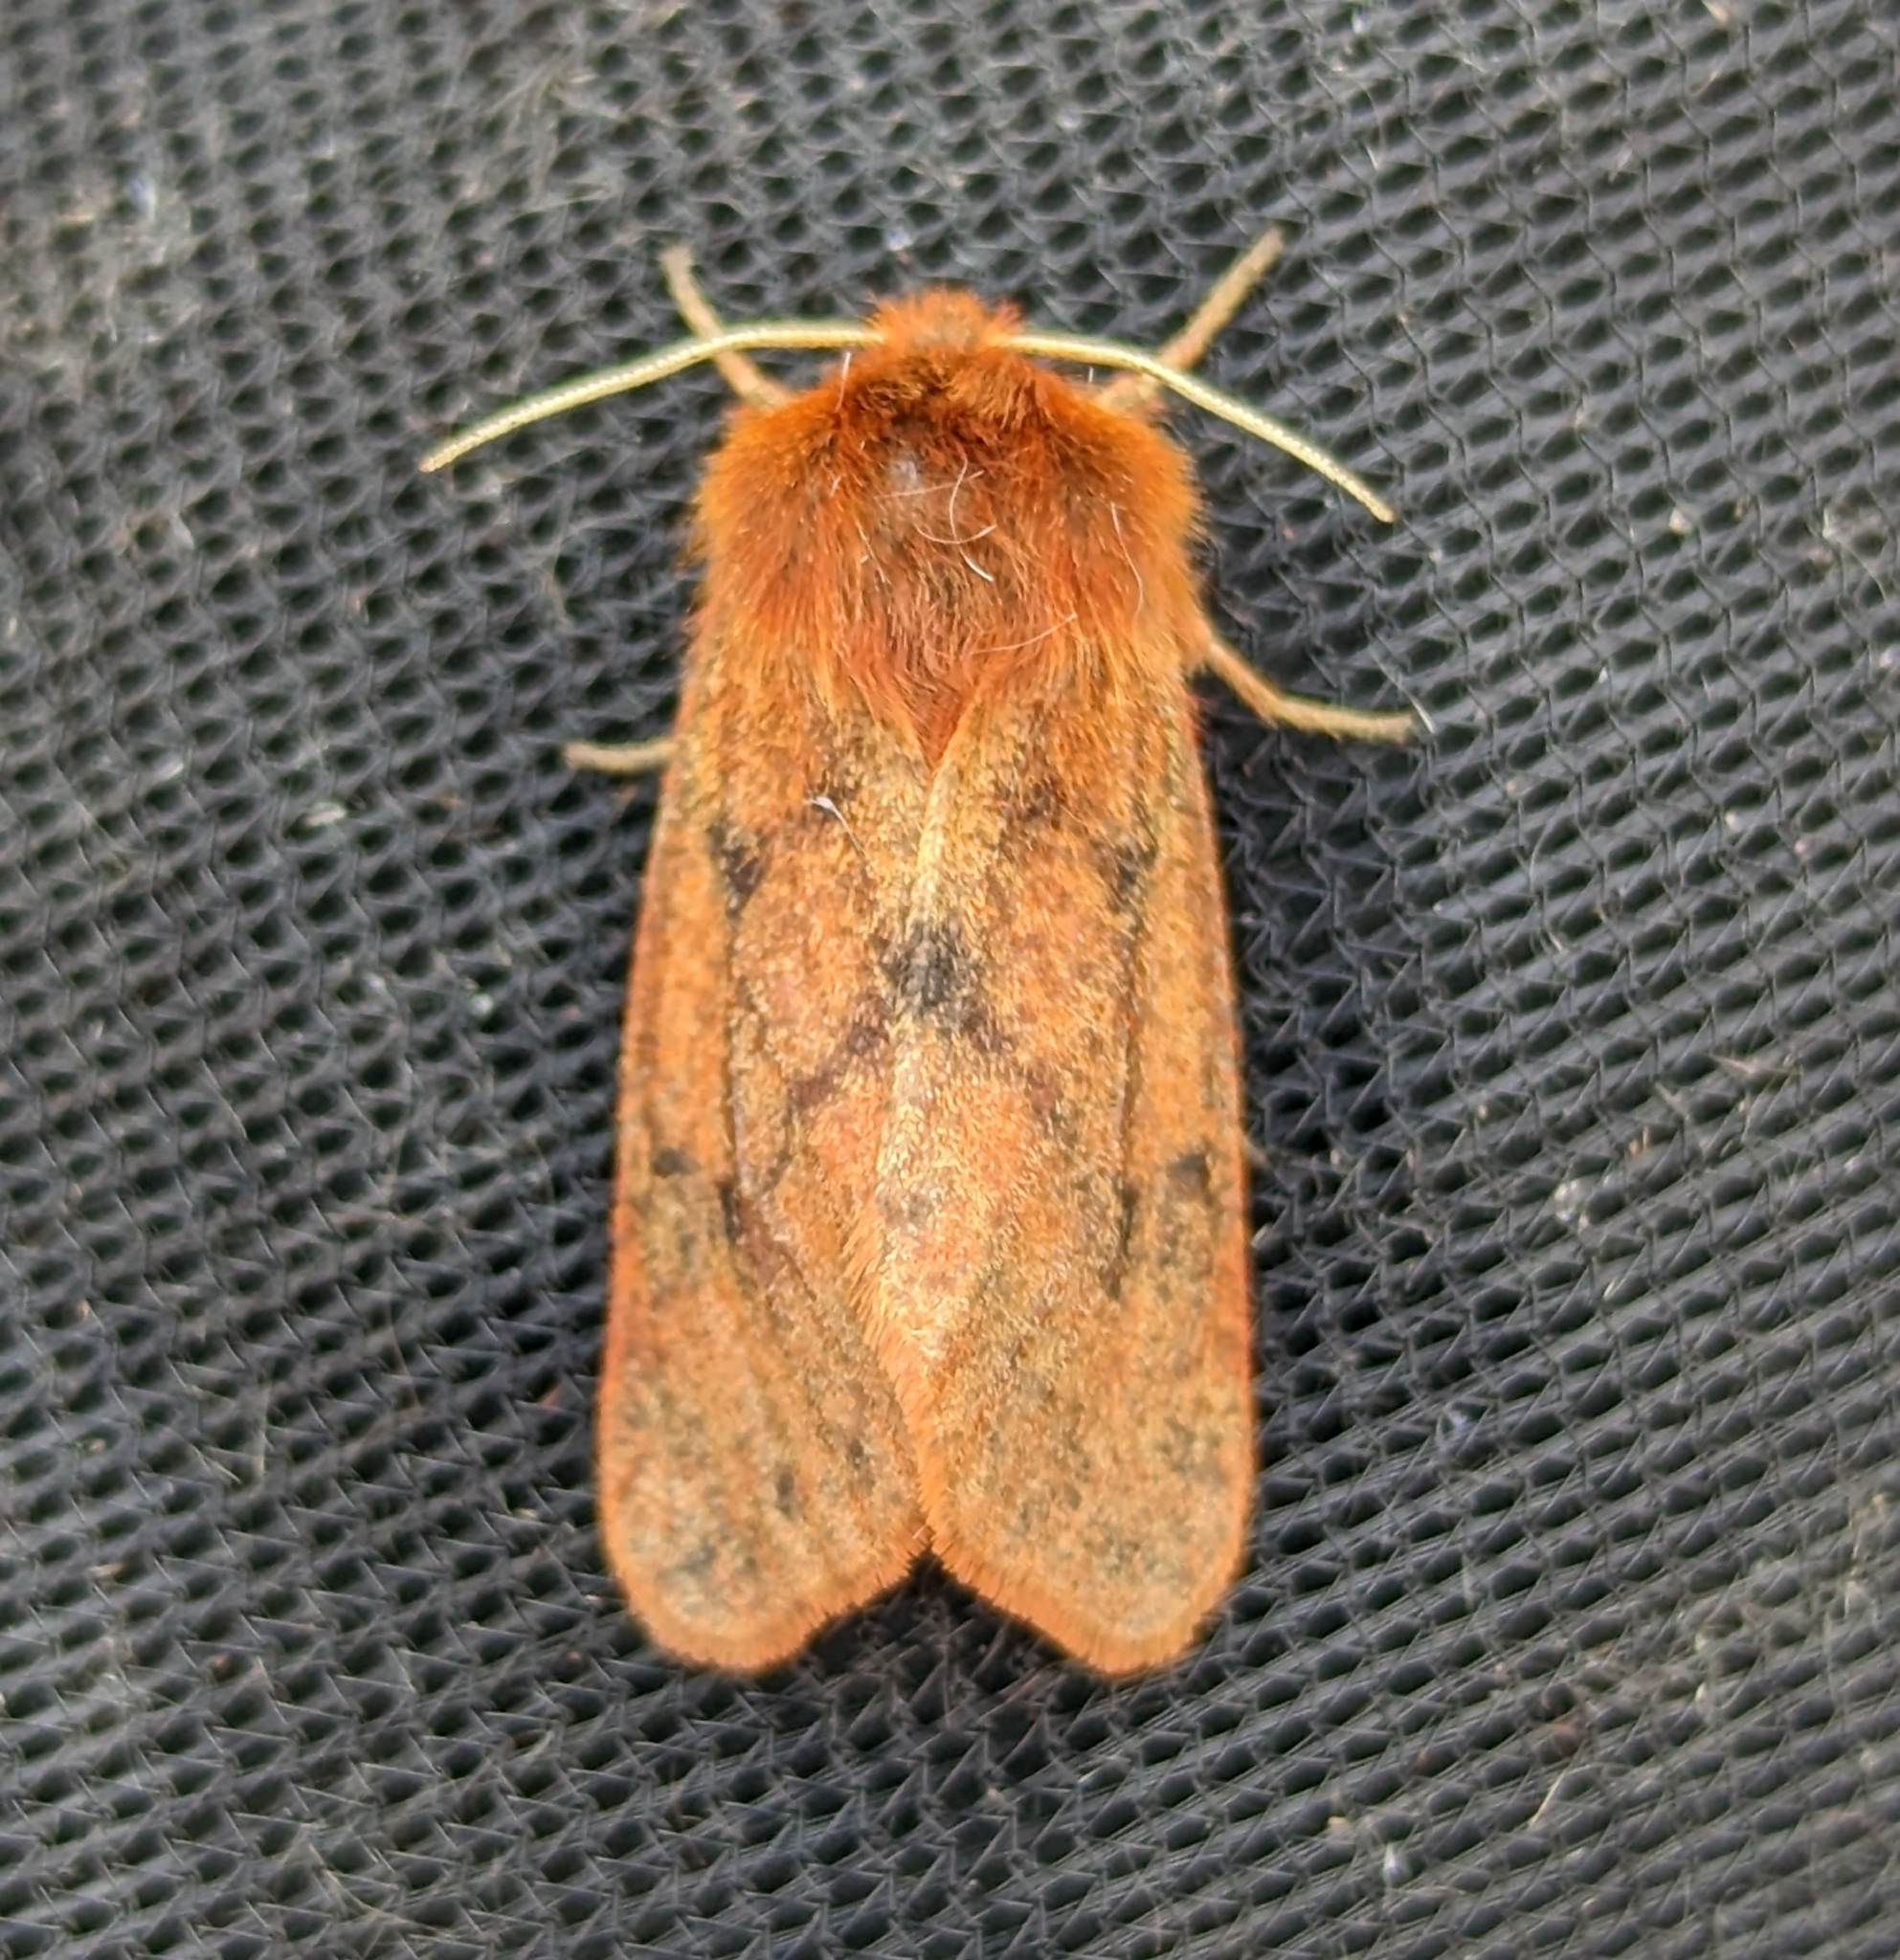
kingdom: Animalia
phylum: Arthropoda
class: Insecta
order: Lepidoptera
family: Erebidae
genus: Phragmatobia
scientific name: Phragmatobia assimilans
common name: Large ruby tiger moth
